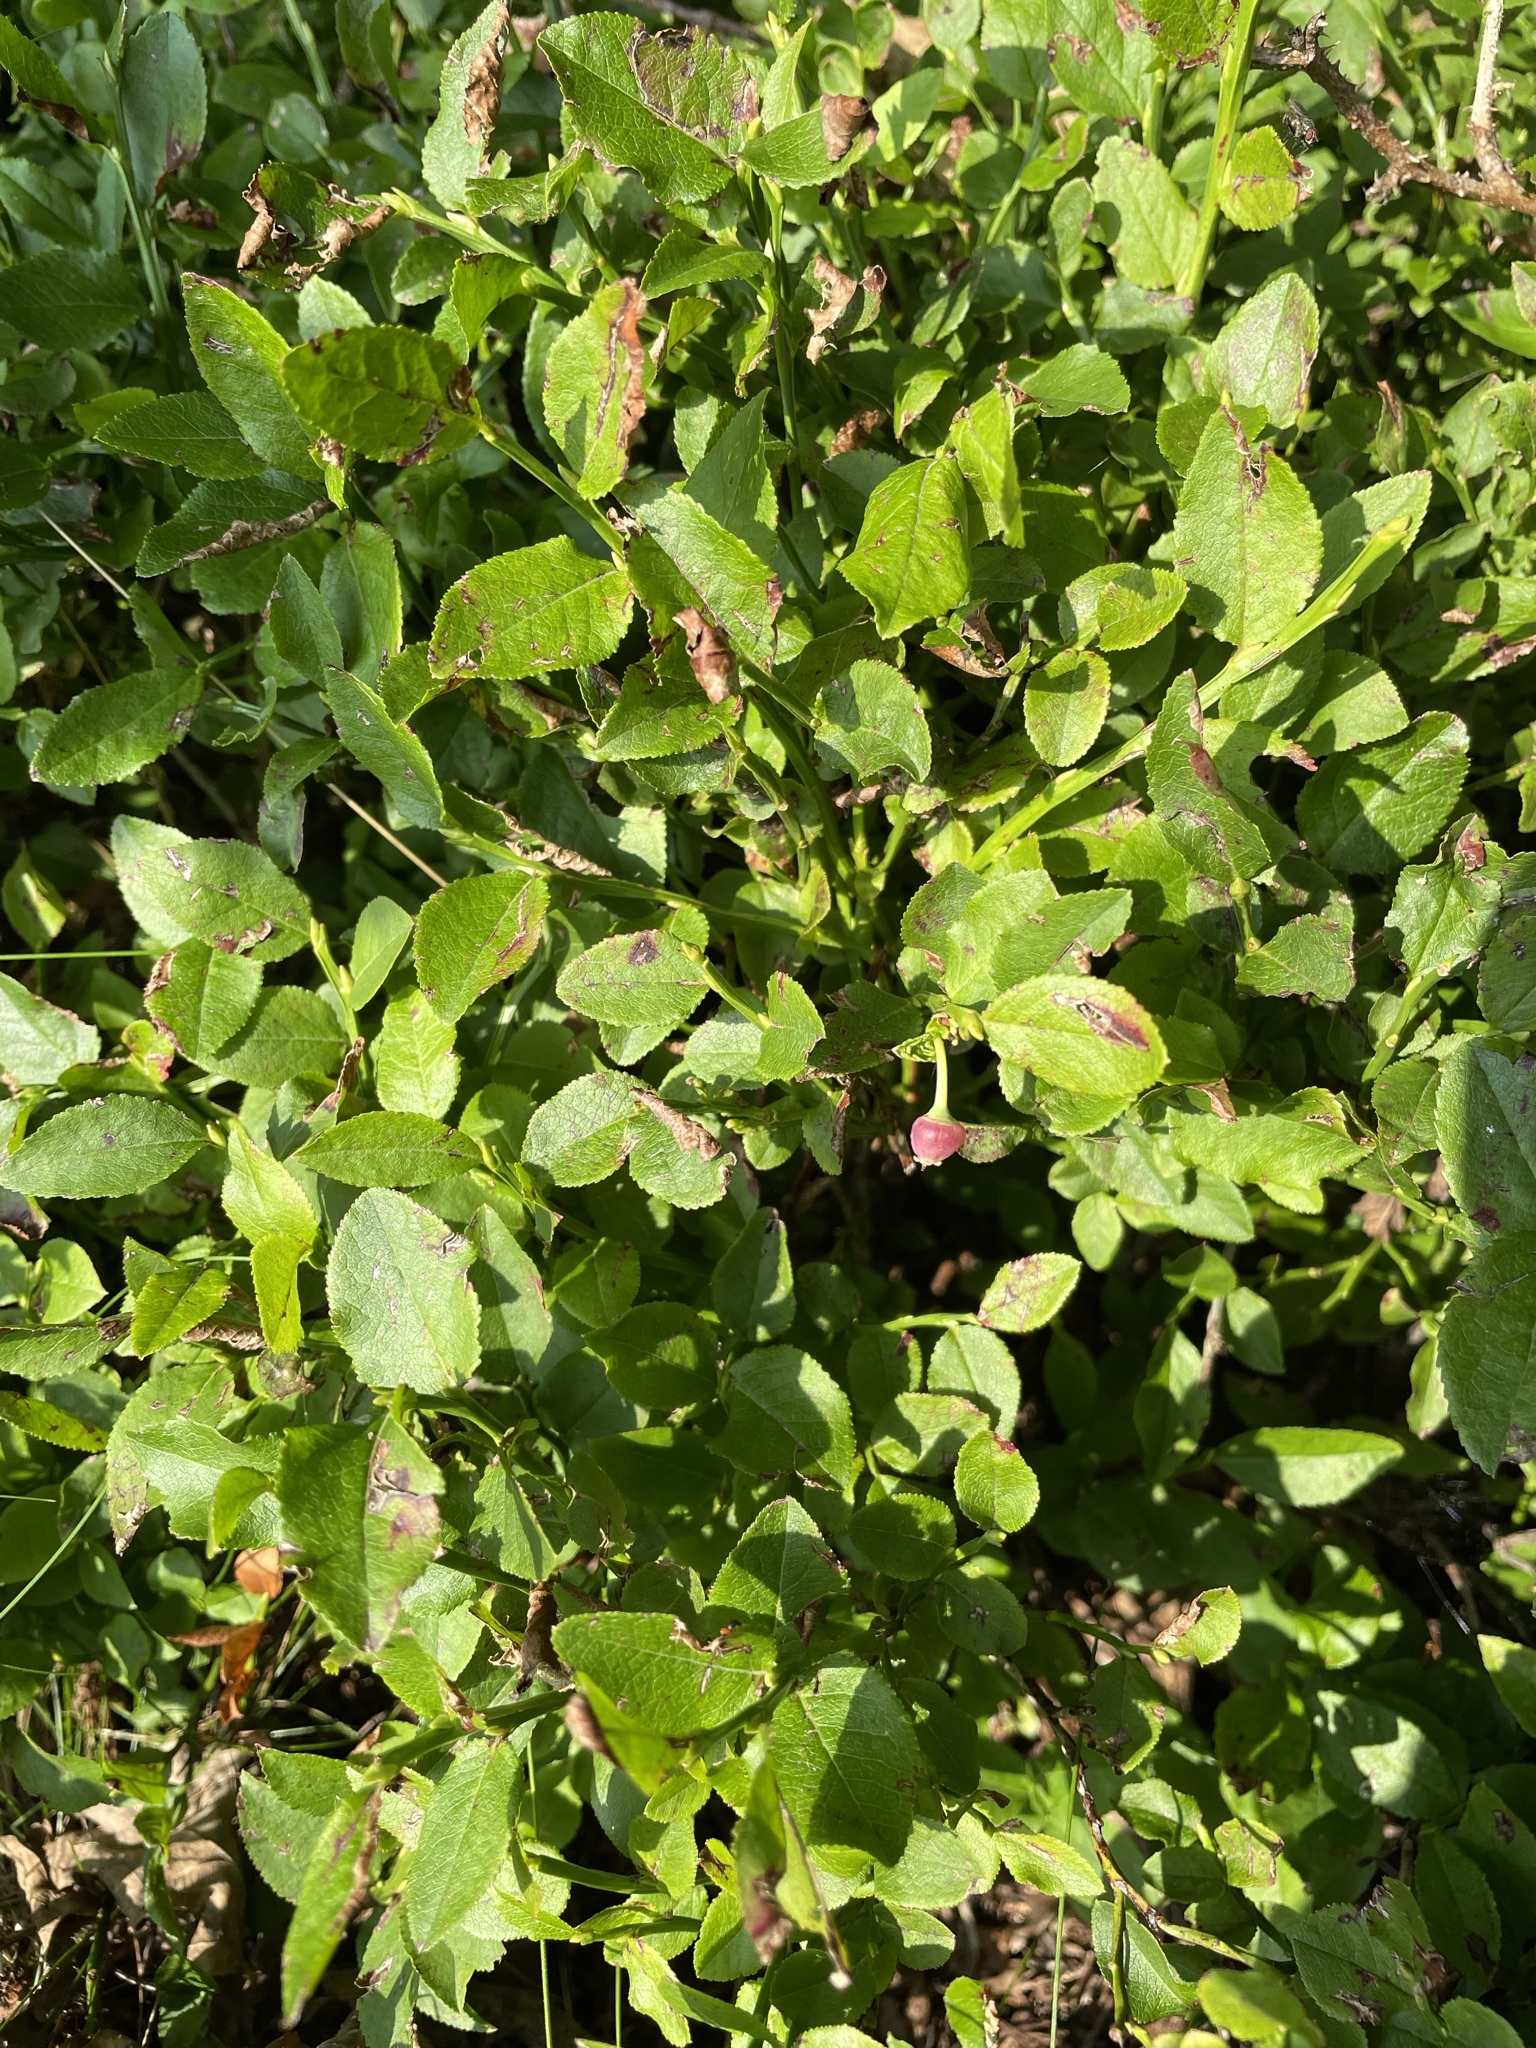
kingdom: Plantae
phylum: Tracheophyta
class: Magnoliopsida
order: Ericales
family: Ericaceae
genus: Vaccinium
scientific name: Vaccinium myrtillus
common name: Bilberry
